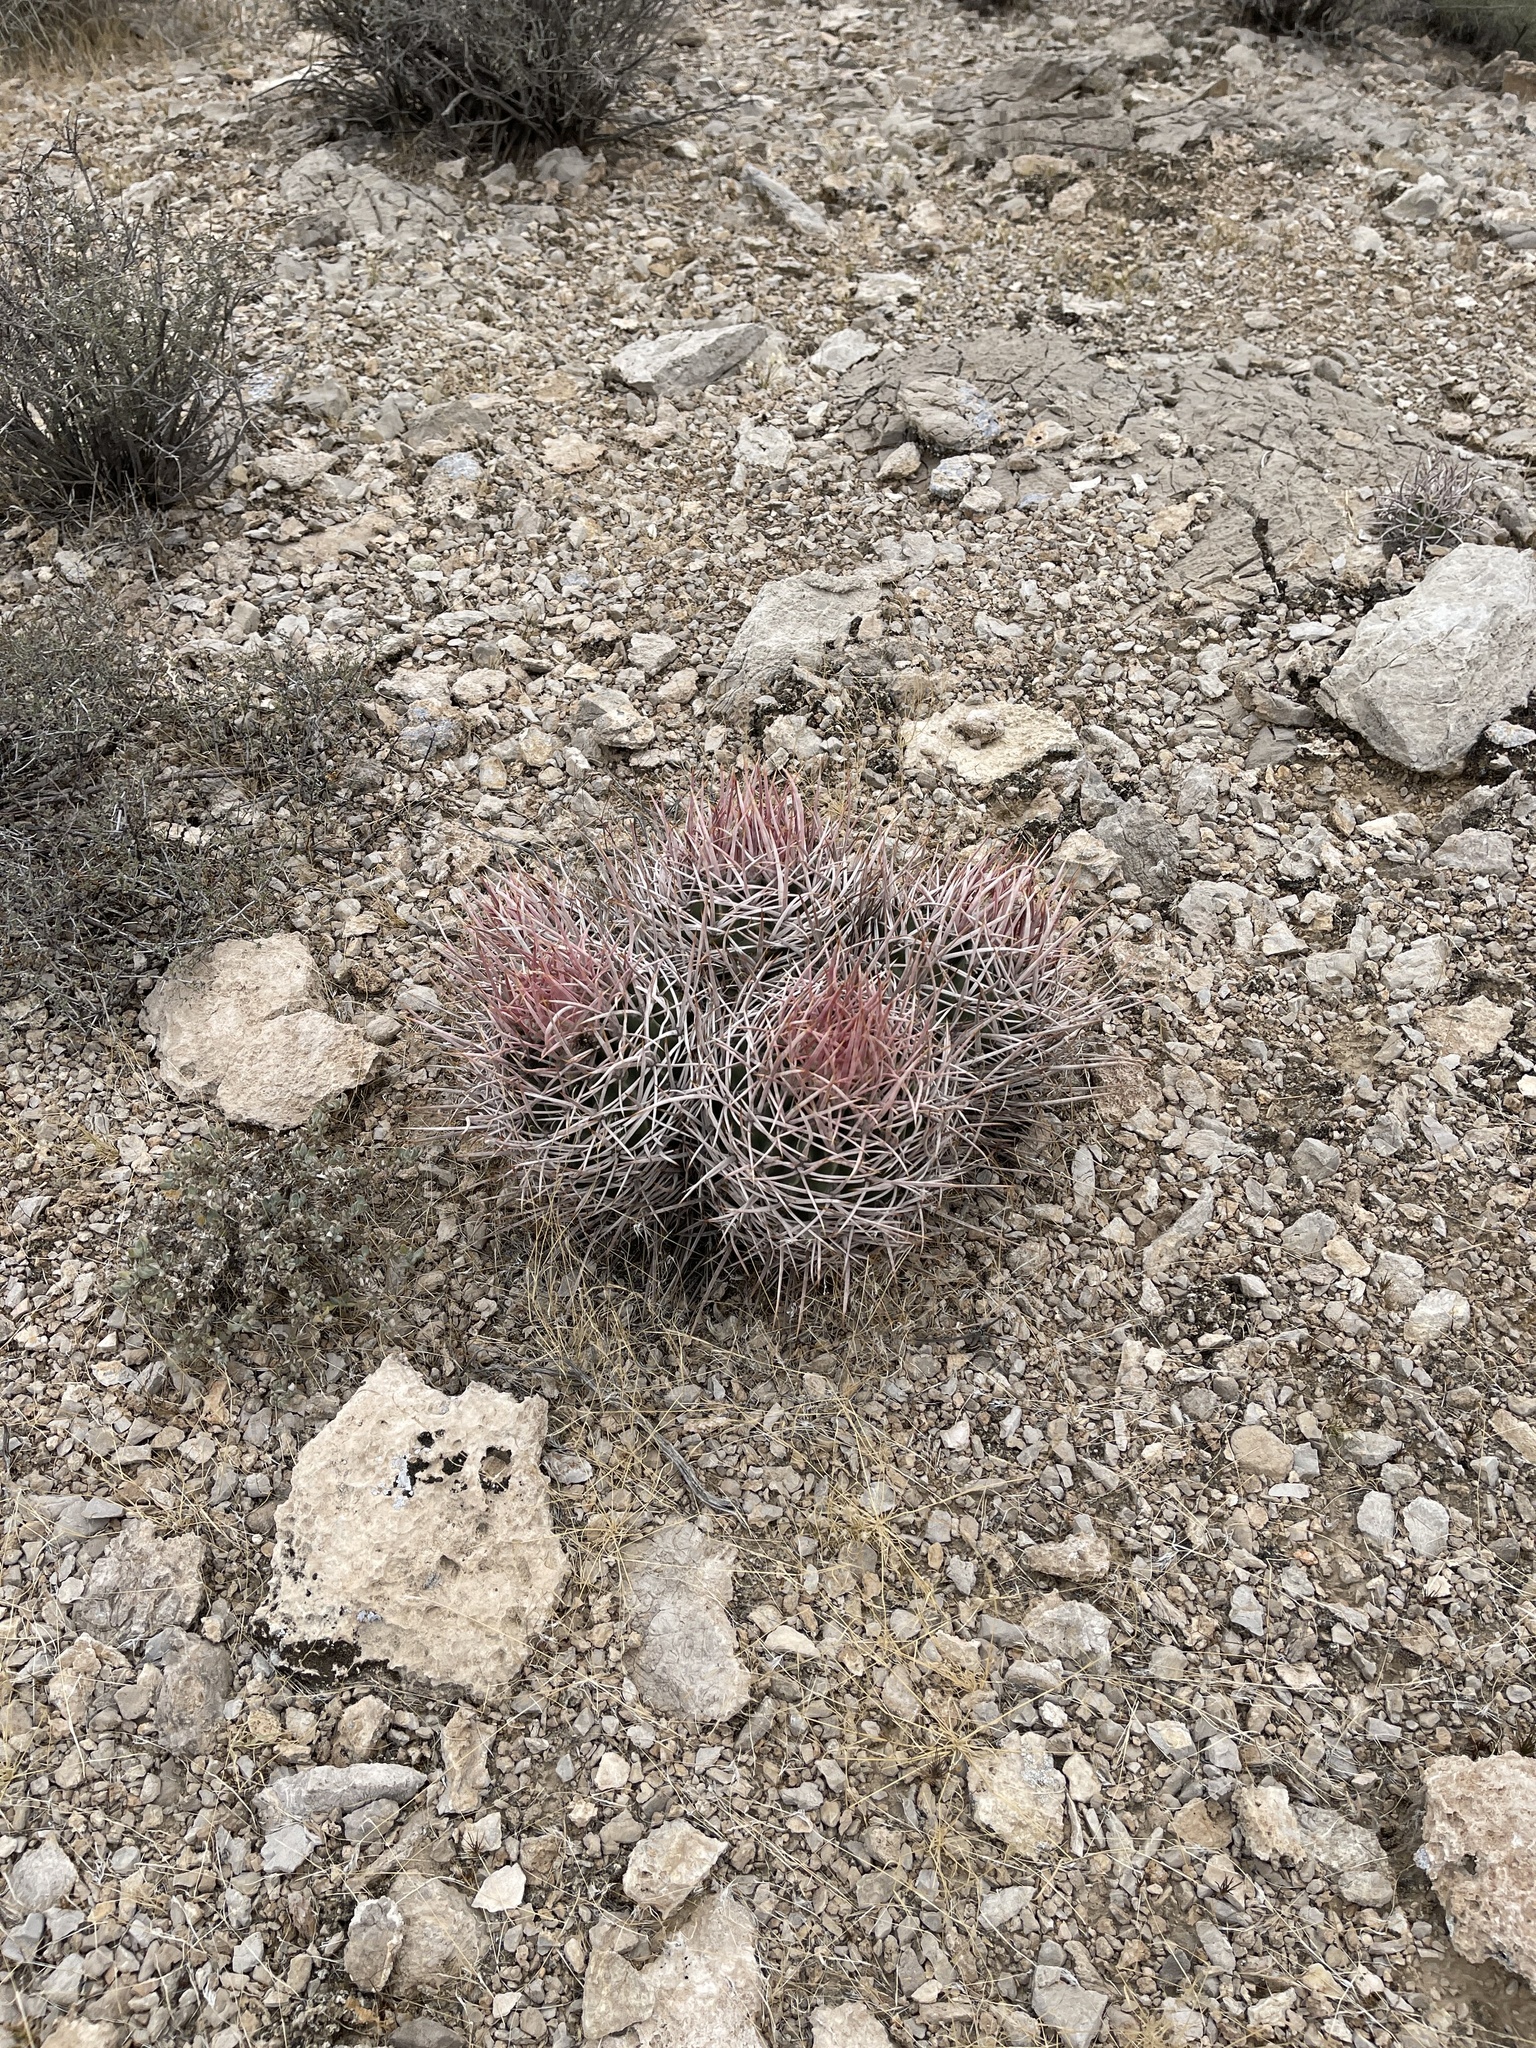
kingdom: Plantae
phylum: Tracheophyta
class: Magnoliopsida
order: Caryophyllales
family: Cactaceae
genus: Echinocactus
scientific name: Echinocactus polycephalus
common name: Cottontop cactus
